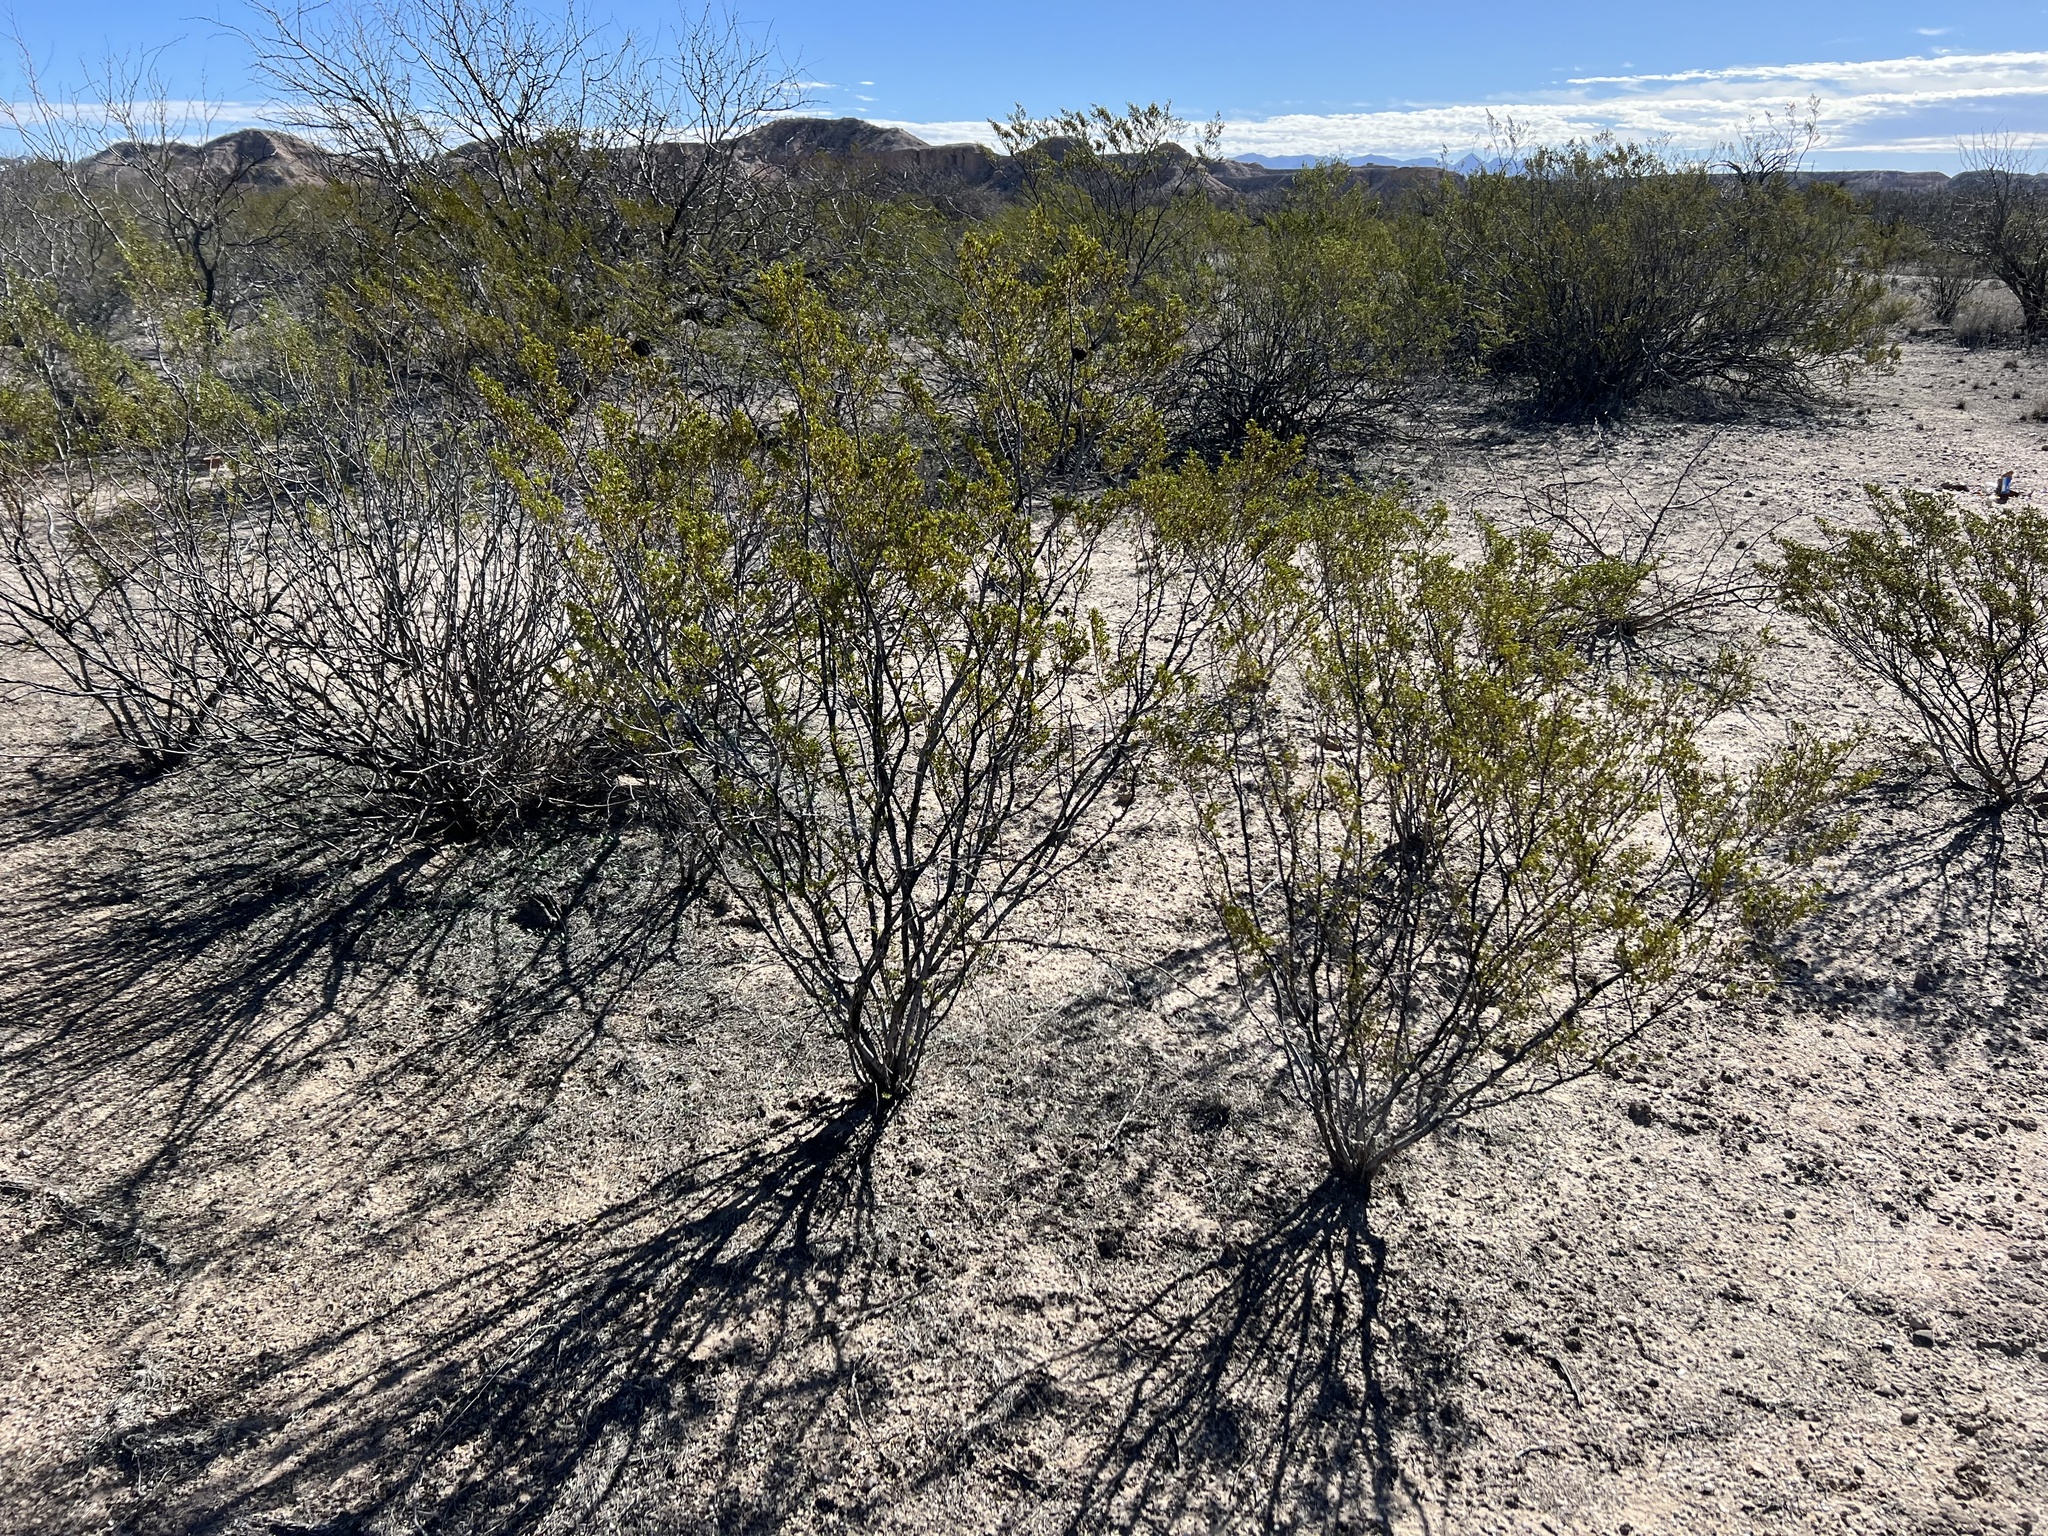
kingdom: Plantae
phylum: Tracheophyta
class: Magnoliopsida
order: Zygophyllales
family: Zygophyllaceae
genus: Larrea
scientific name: Larrea tridentata
